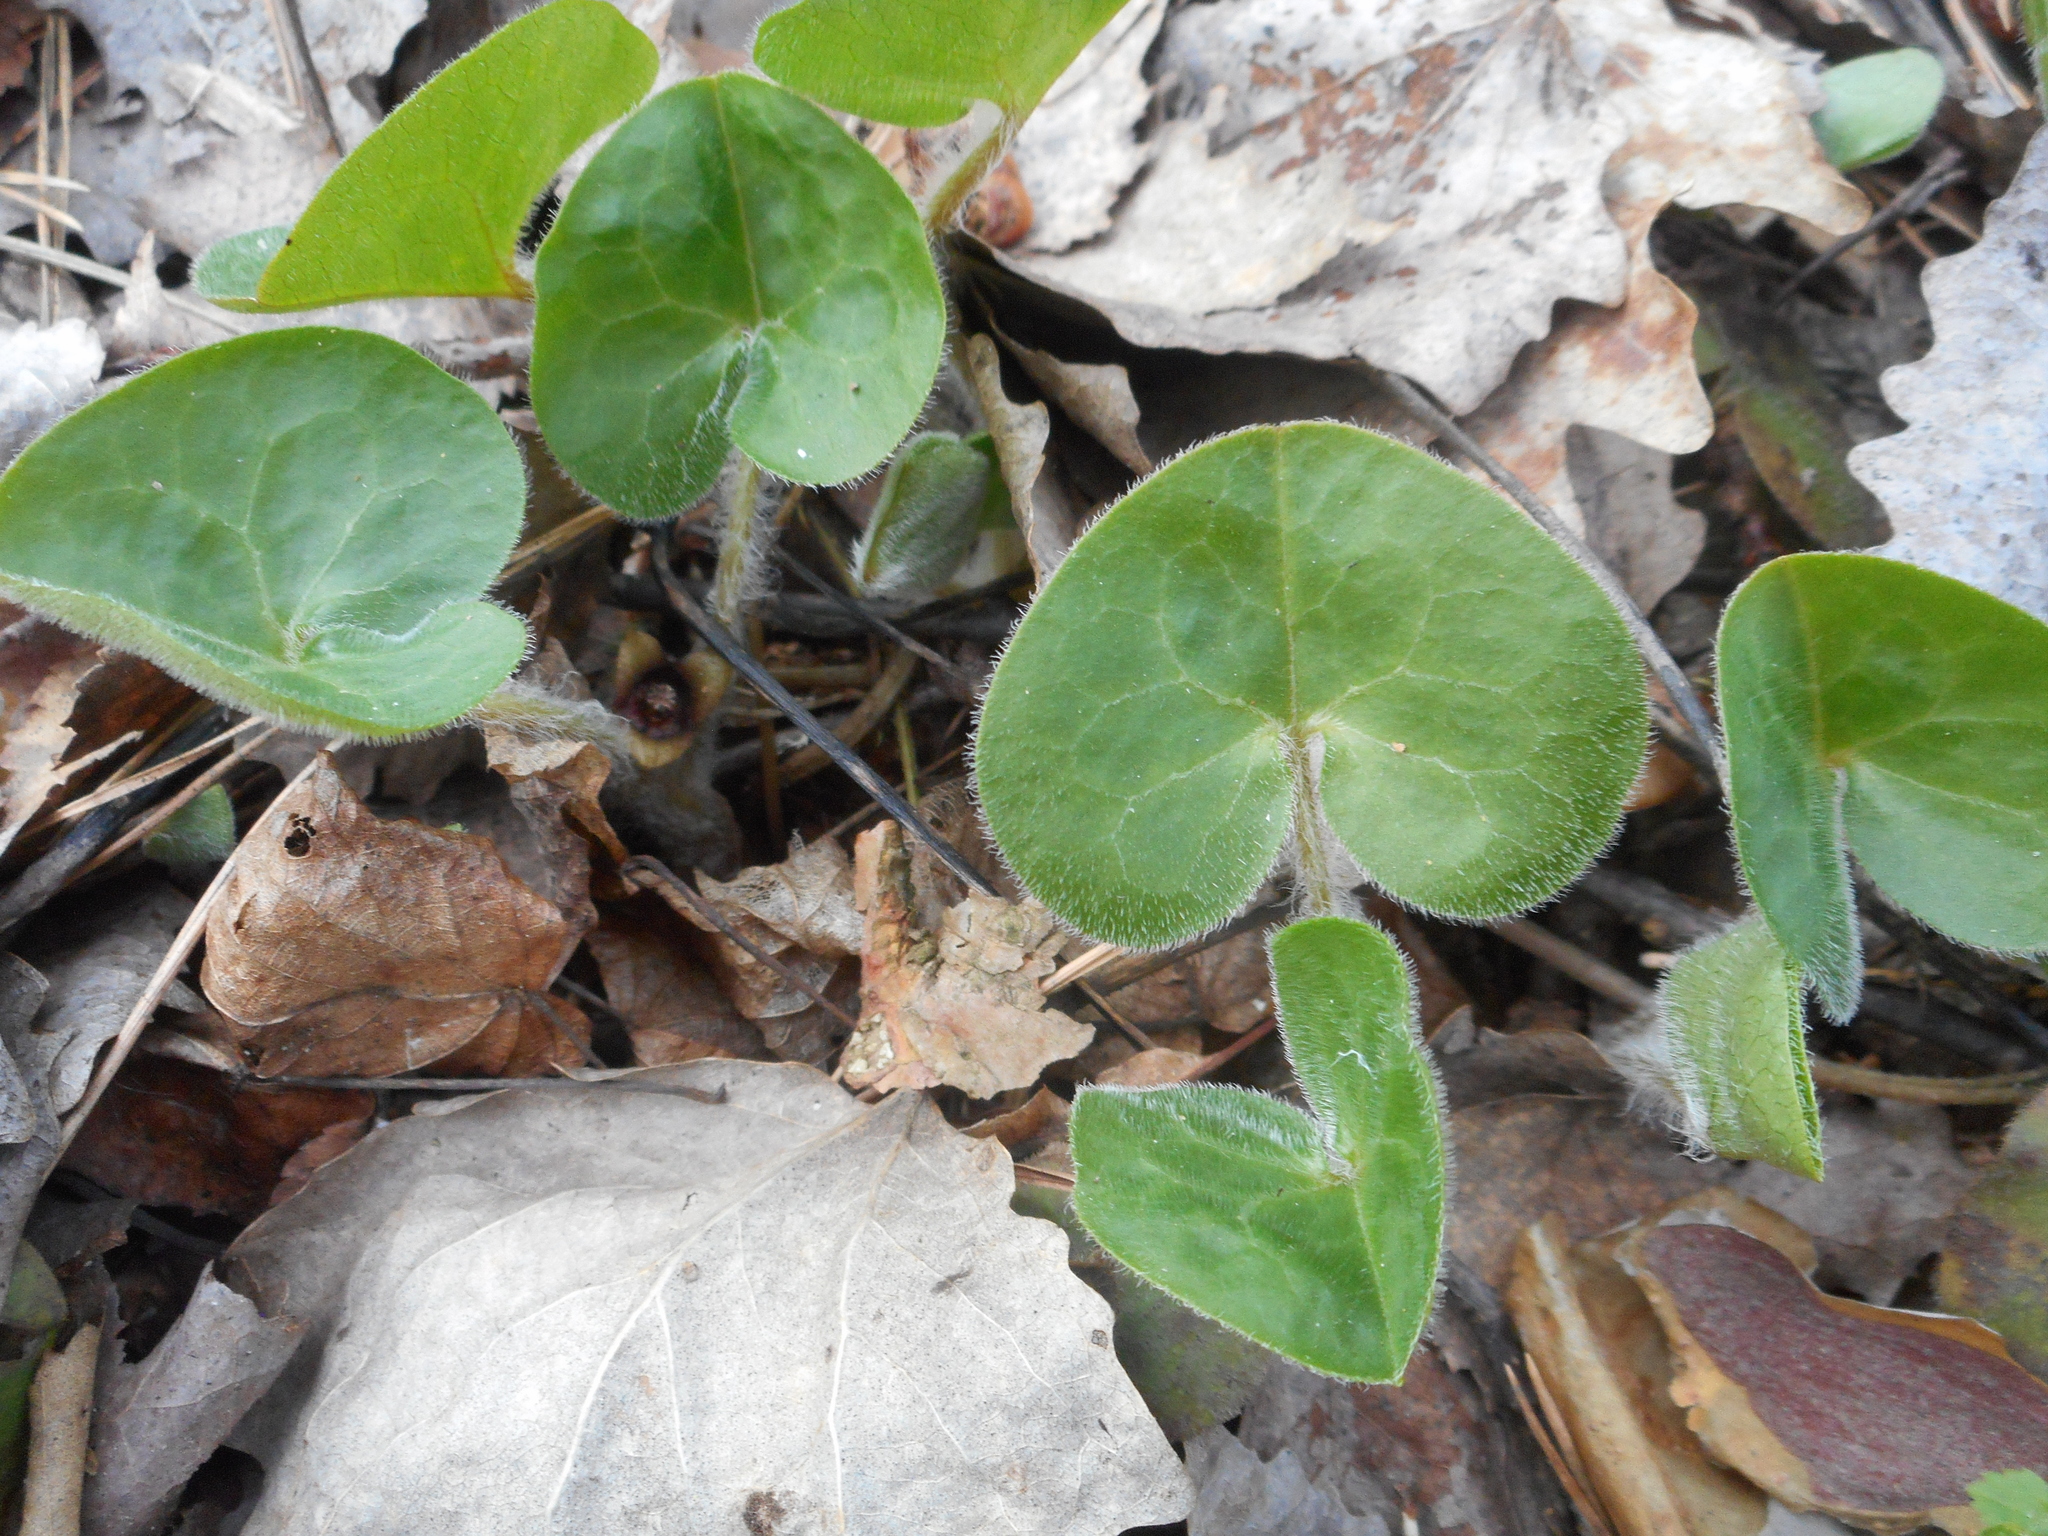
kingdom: Plantae
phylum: Tracheophyta
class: Magnoliopsida
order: Piperales
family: Aristolochiaceae
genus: Asarum
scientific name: Asarum europaeum
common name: Asarabacca
